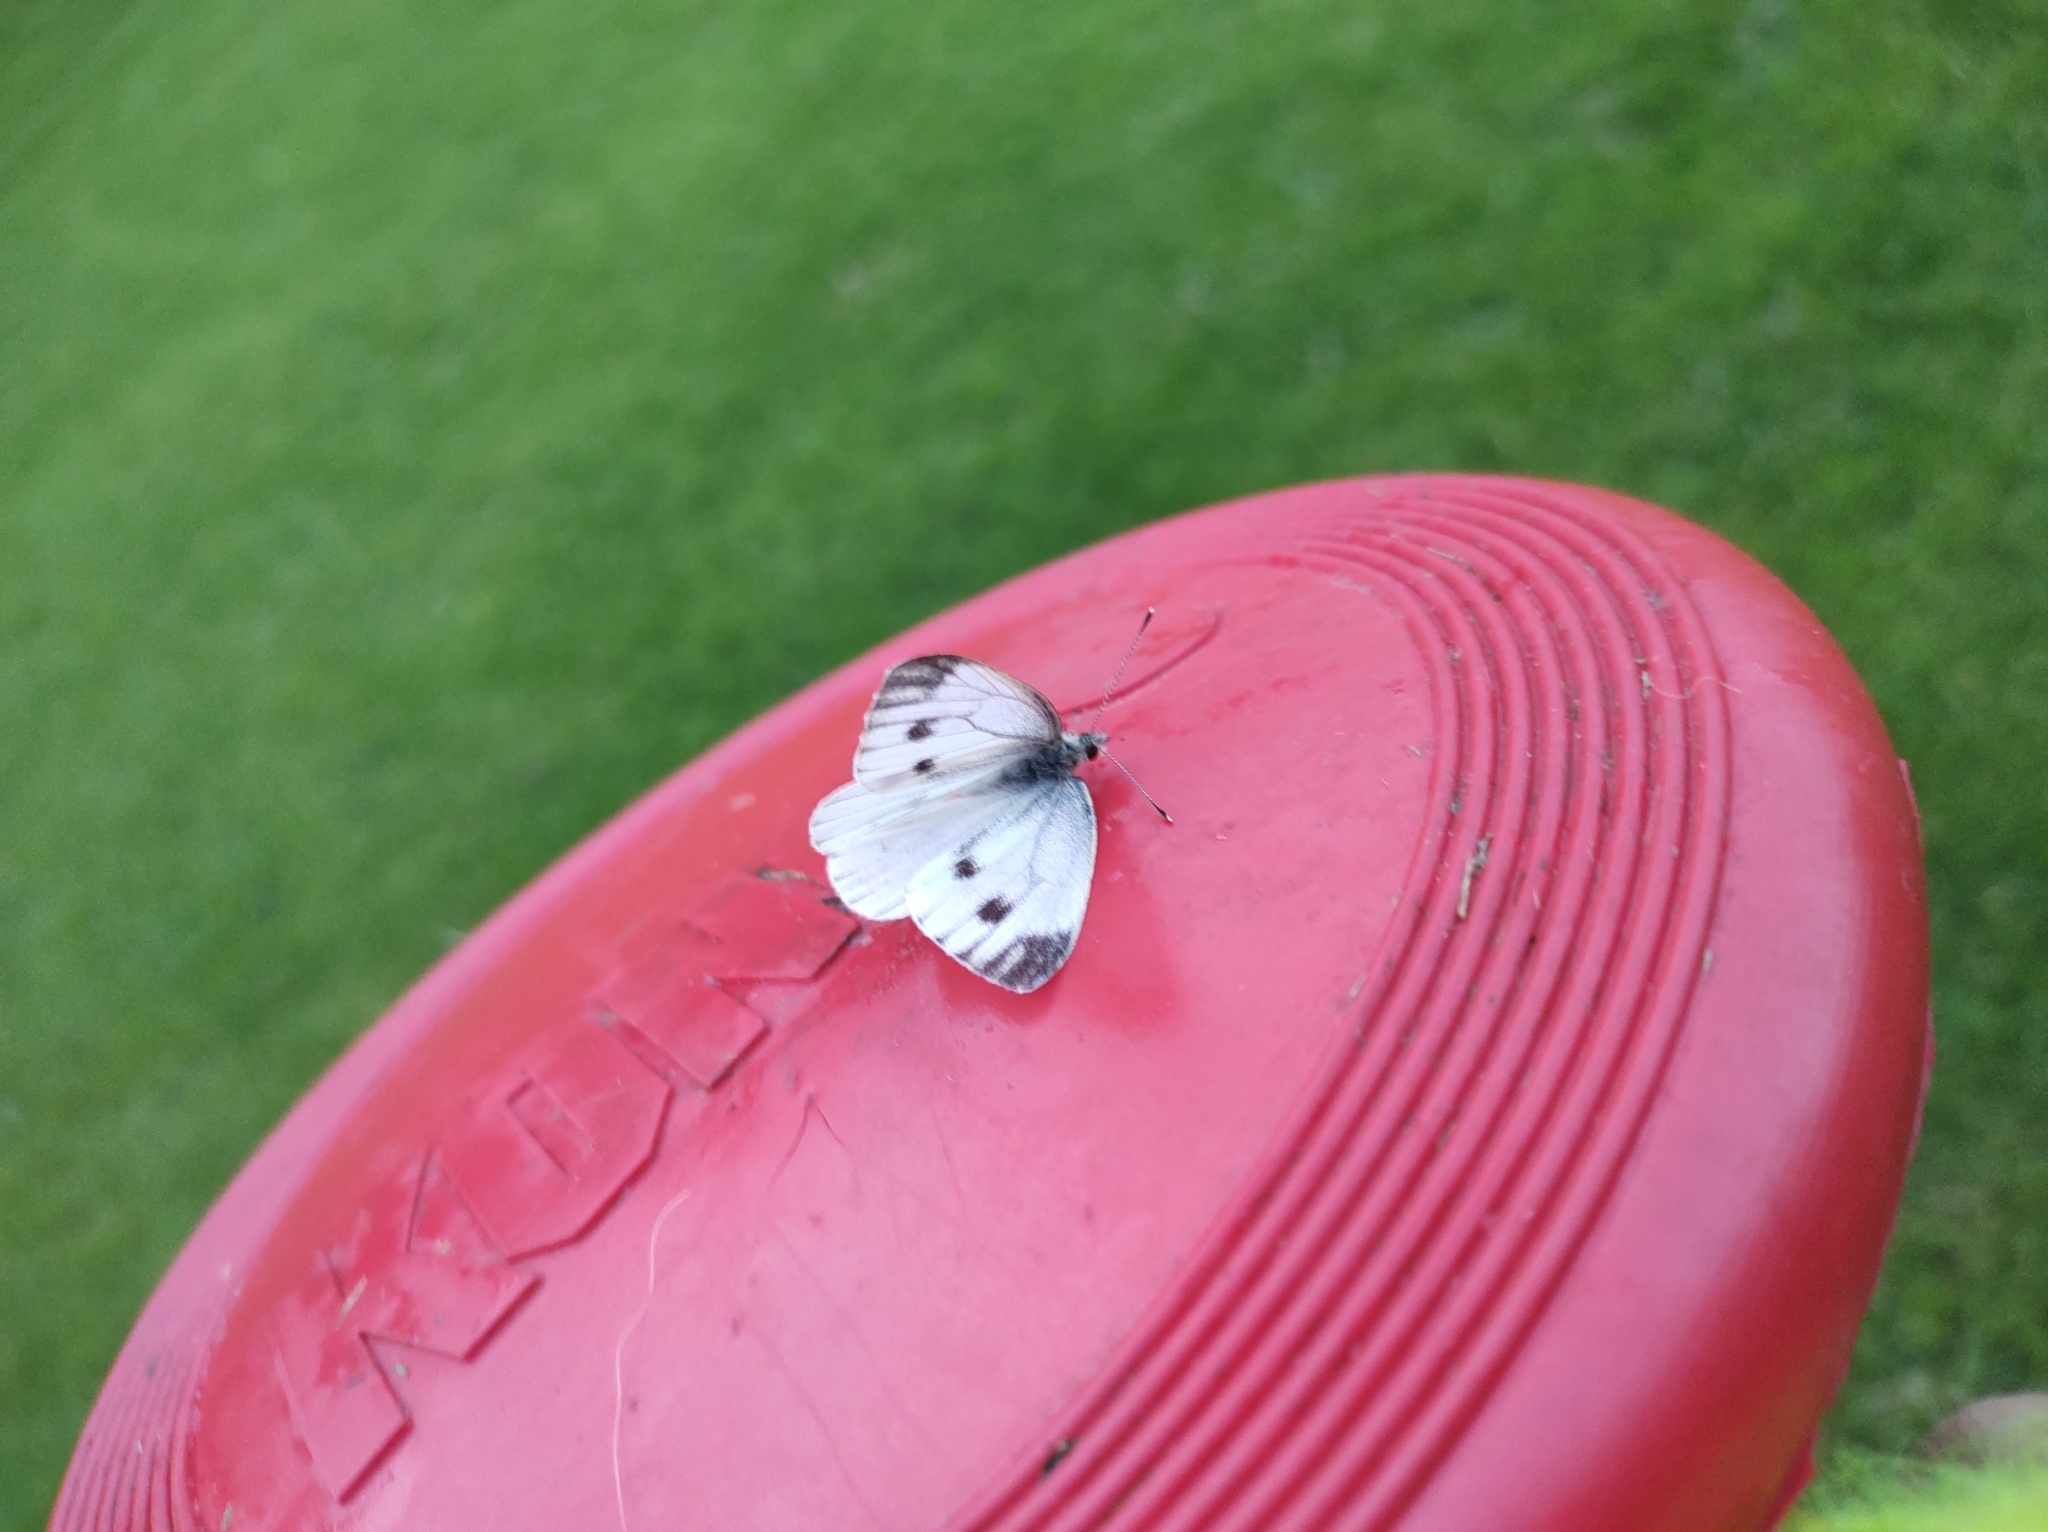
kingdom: Animalia
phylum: Arthropoda
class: Insecta
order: Lepidoptera
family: Pieridae
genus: Pieris
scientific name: Pieris napi
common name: Green-veined white
